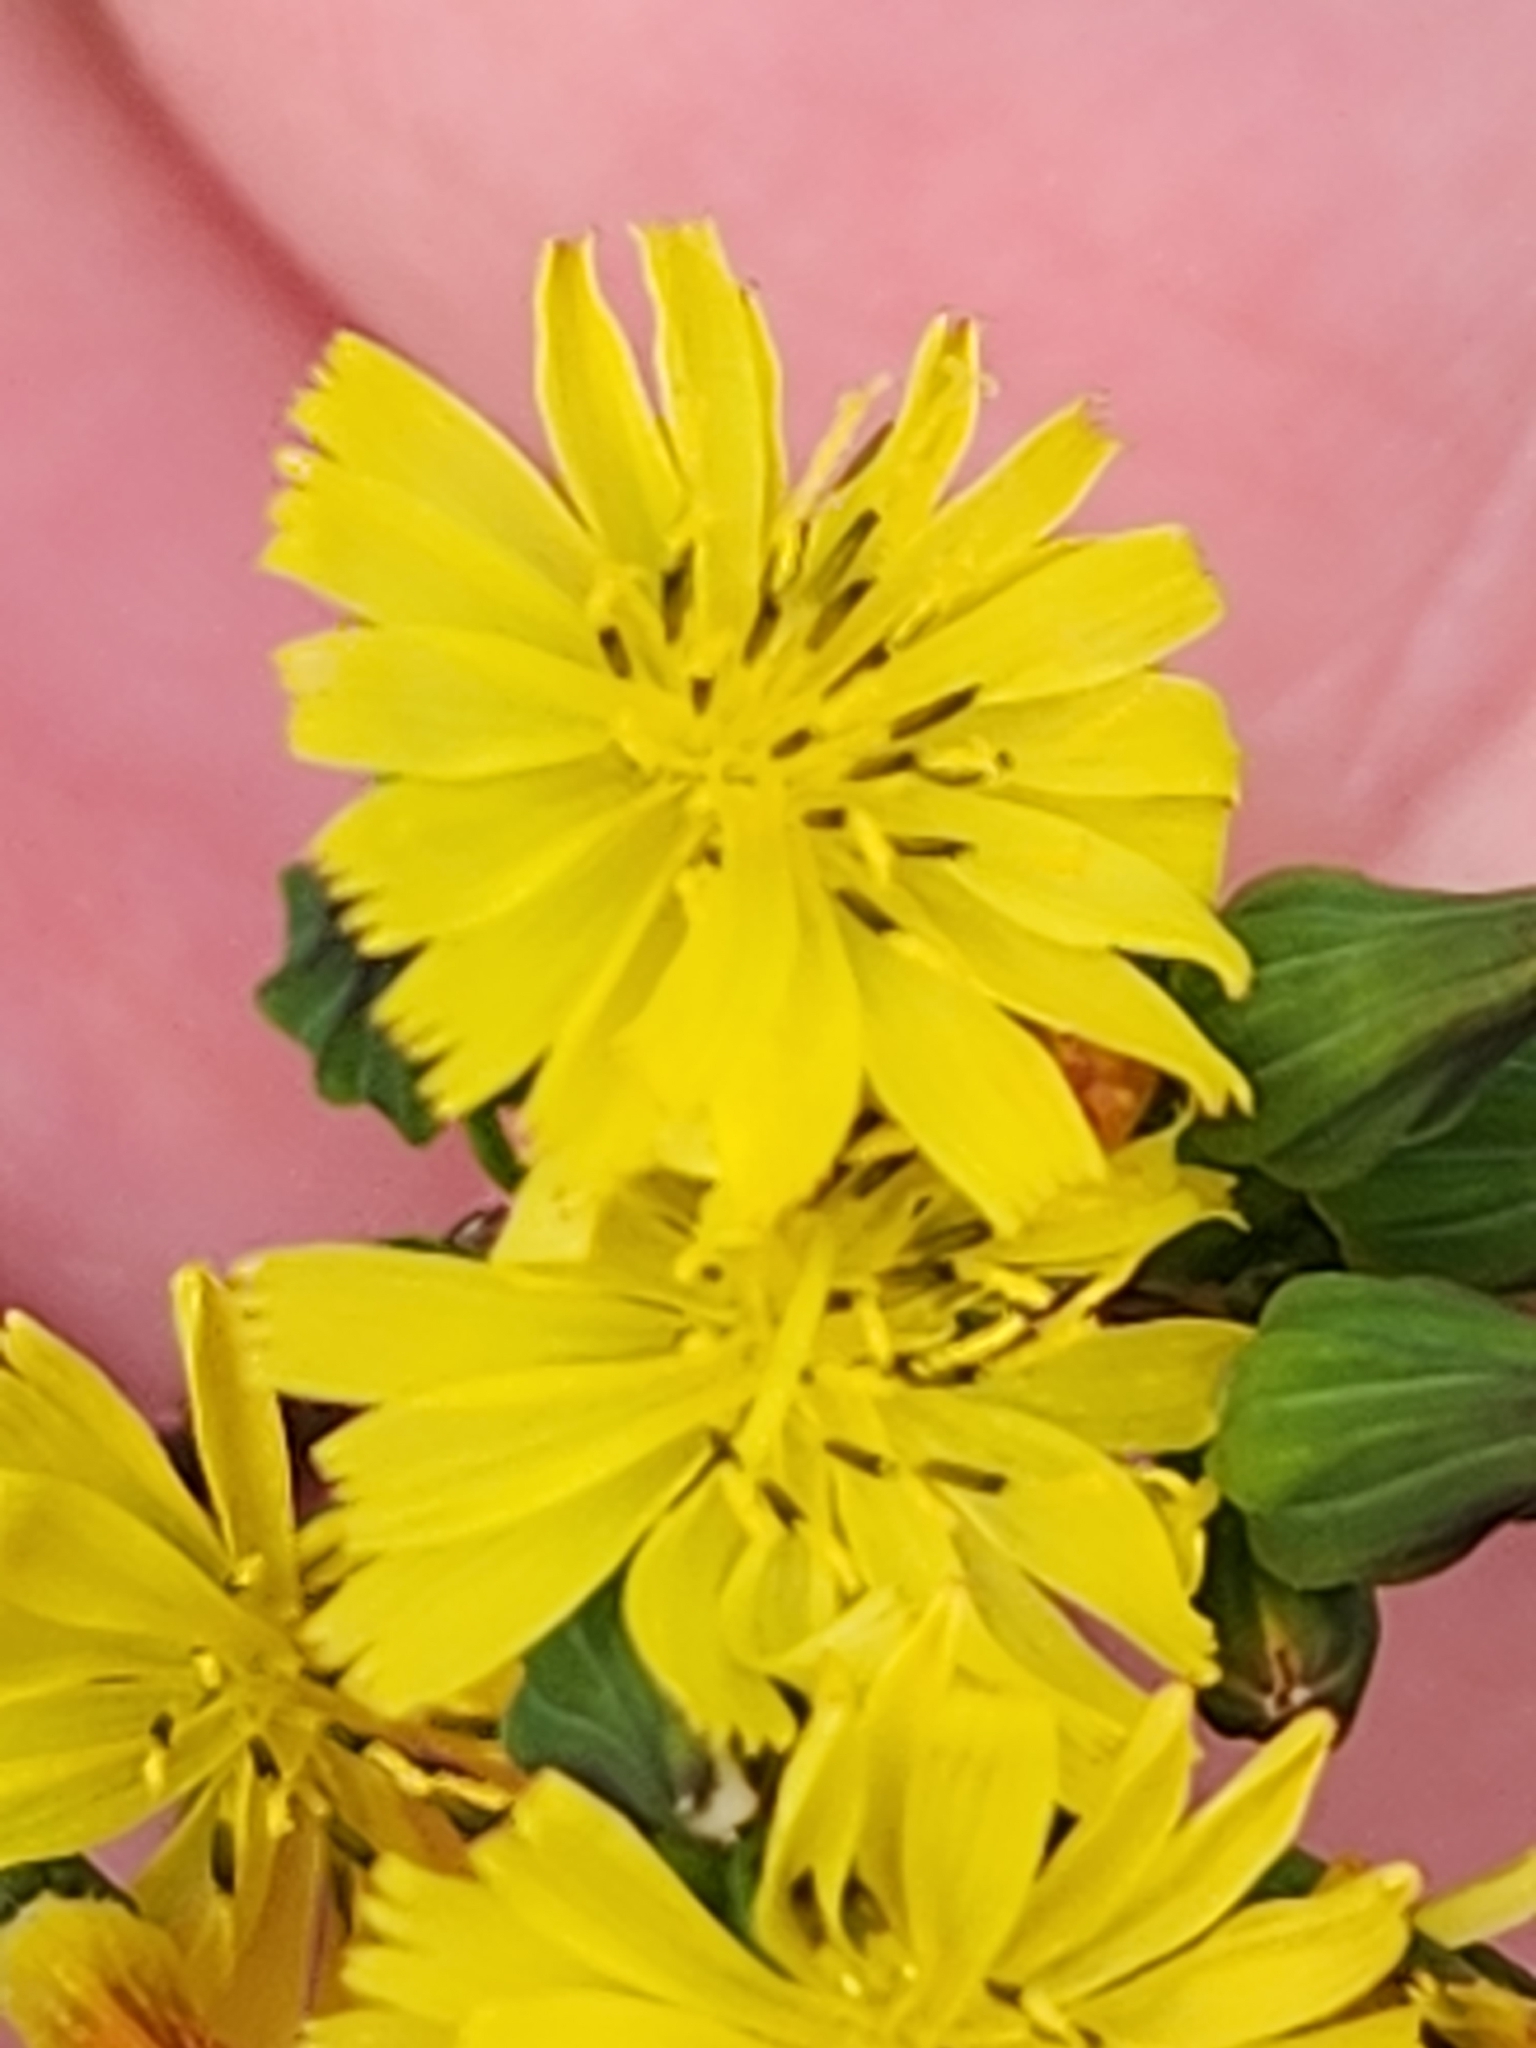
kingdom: Plantae
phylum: Tracheophyta
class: Magnoliopsida
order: Asterales
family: Asteraceae
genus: Youngia
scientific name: Youngia japonica
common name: Oriental false hawksbeard
